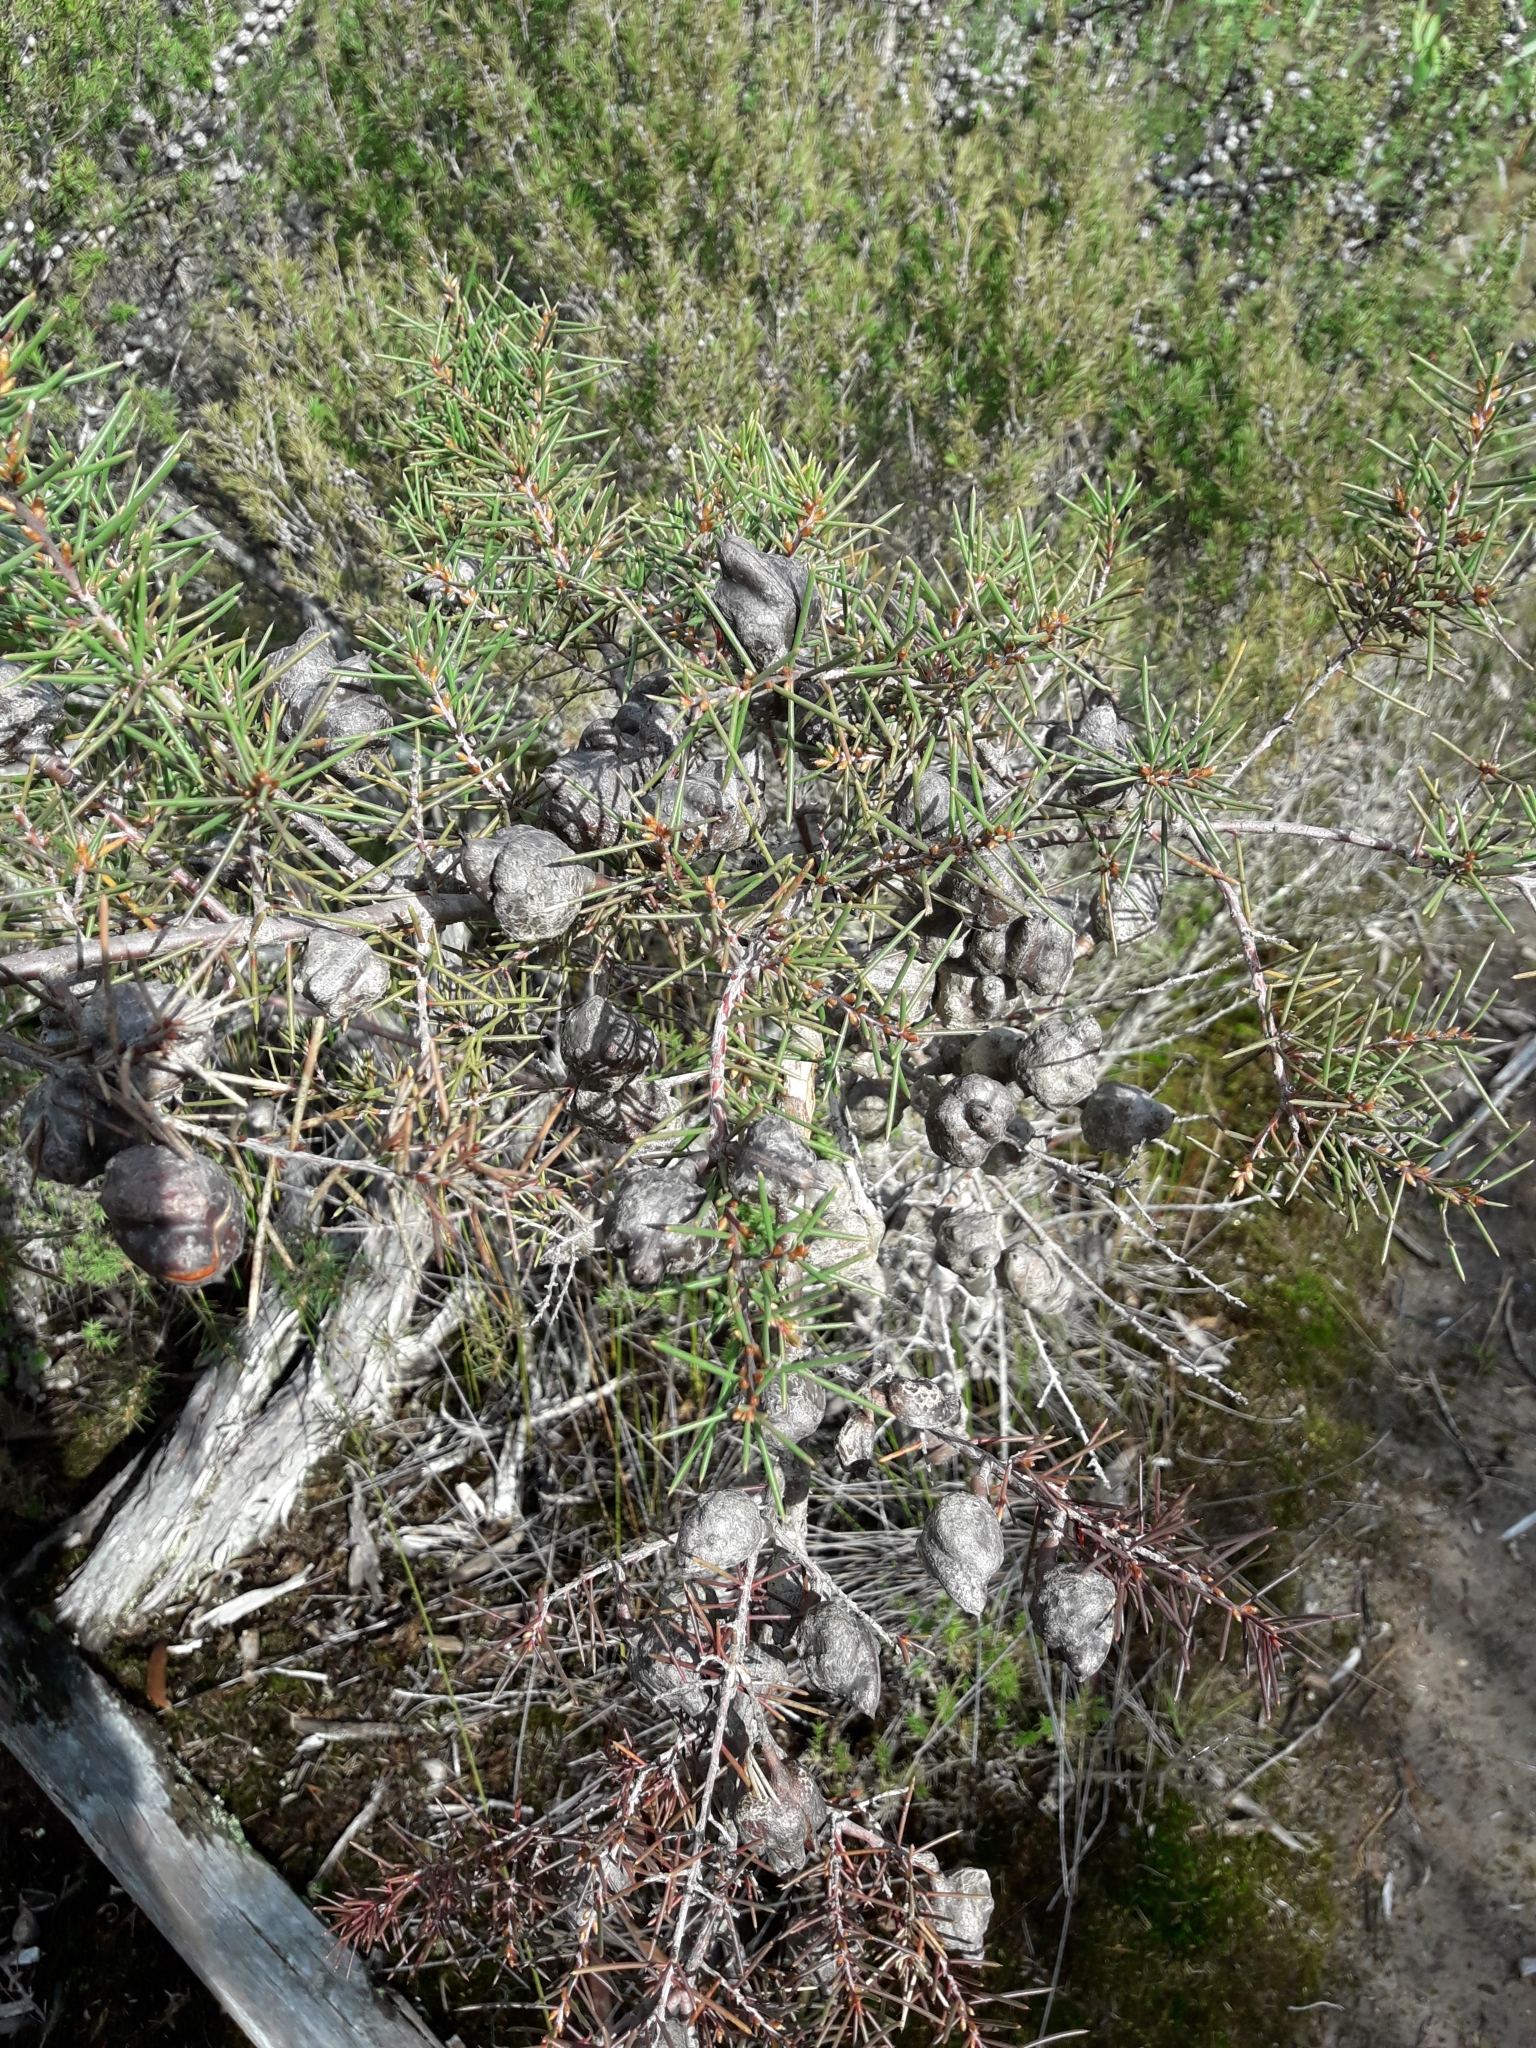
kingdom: Plantae
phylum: Tracheophyta
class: Magnoliopsida
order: Proteales
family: Proteaceae
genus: Hakea
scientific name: Hakea sericea
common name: Needle bush
